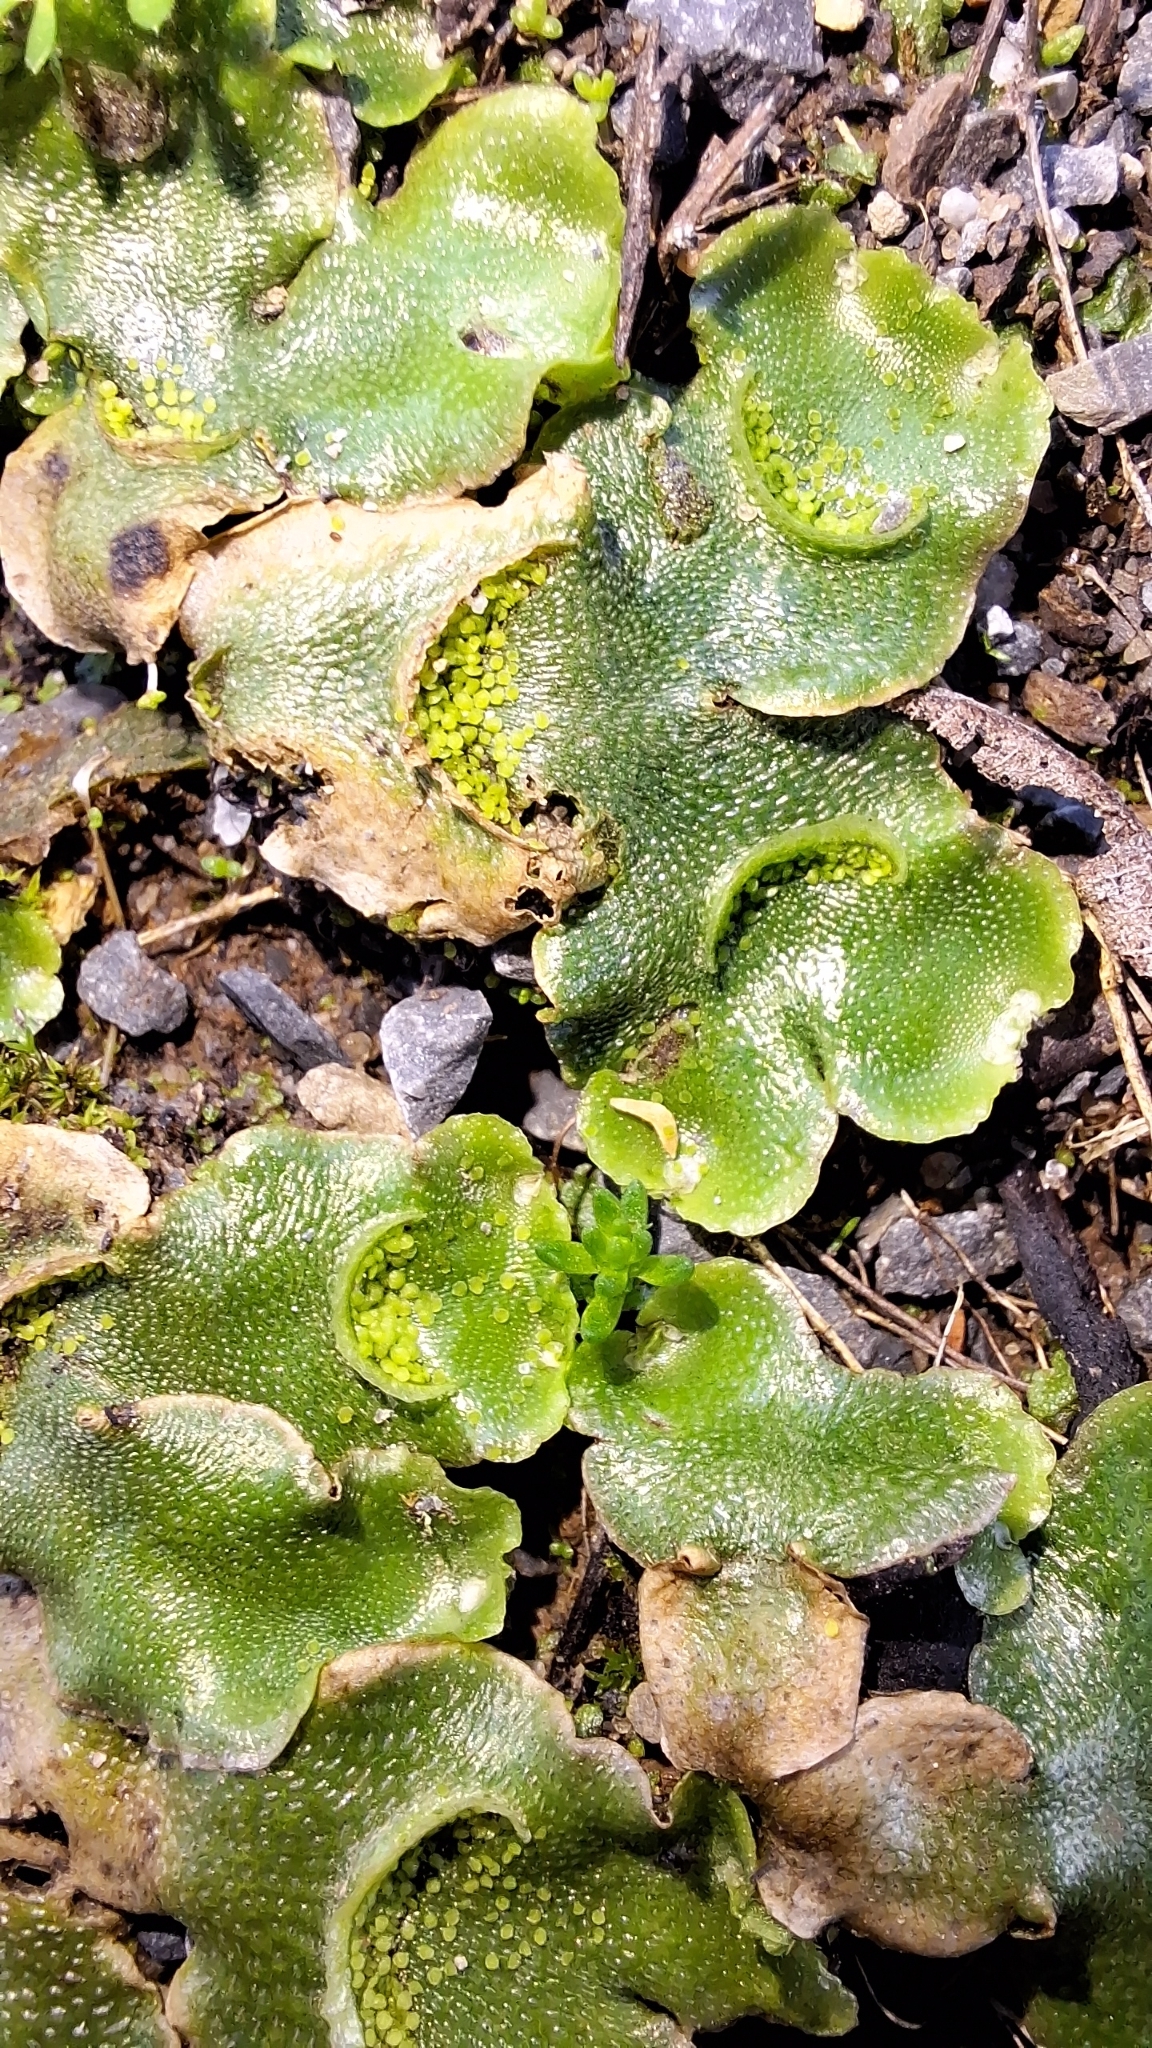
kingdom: Plantae
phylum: Marchantiophyta
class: Marchantiopsida
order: Lunulariales
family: Lunulariaceae
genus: Lunularia
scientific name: Lunularia cruciata
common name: Crescent-cup liverwort
